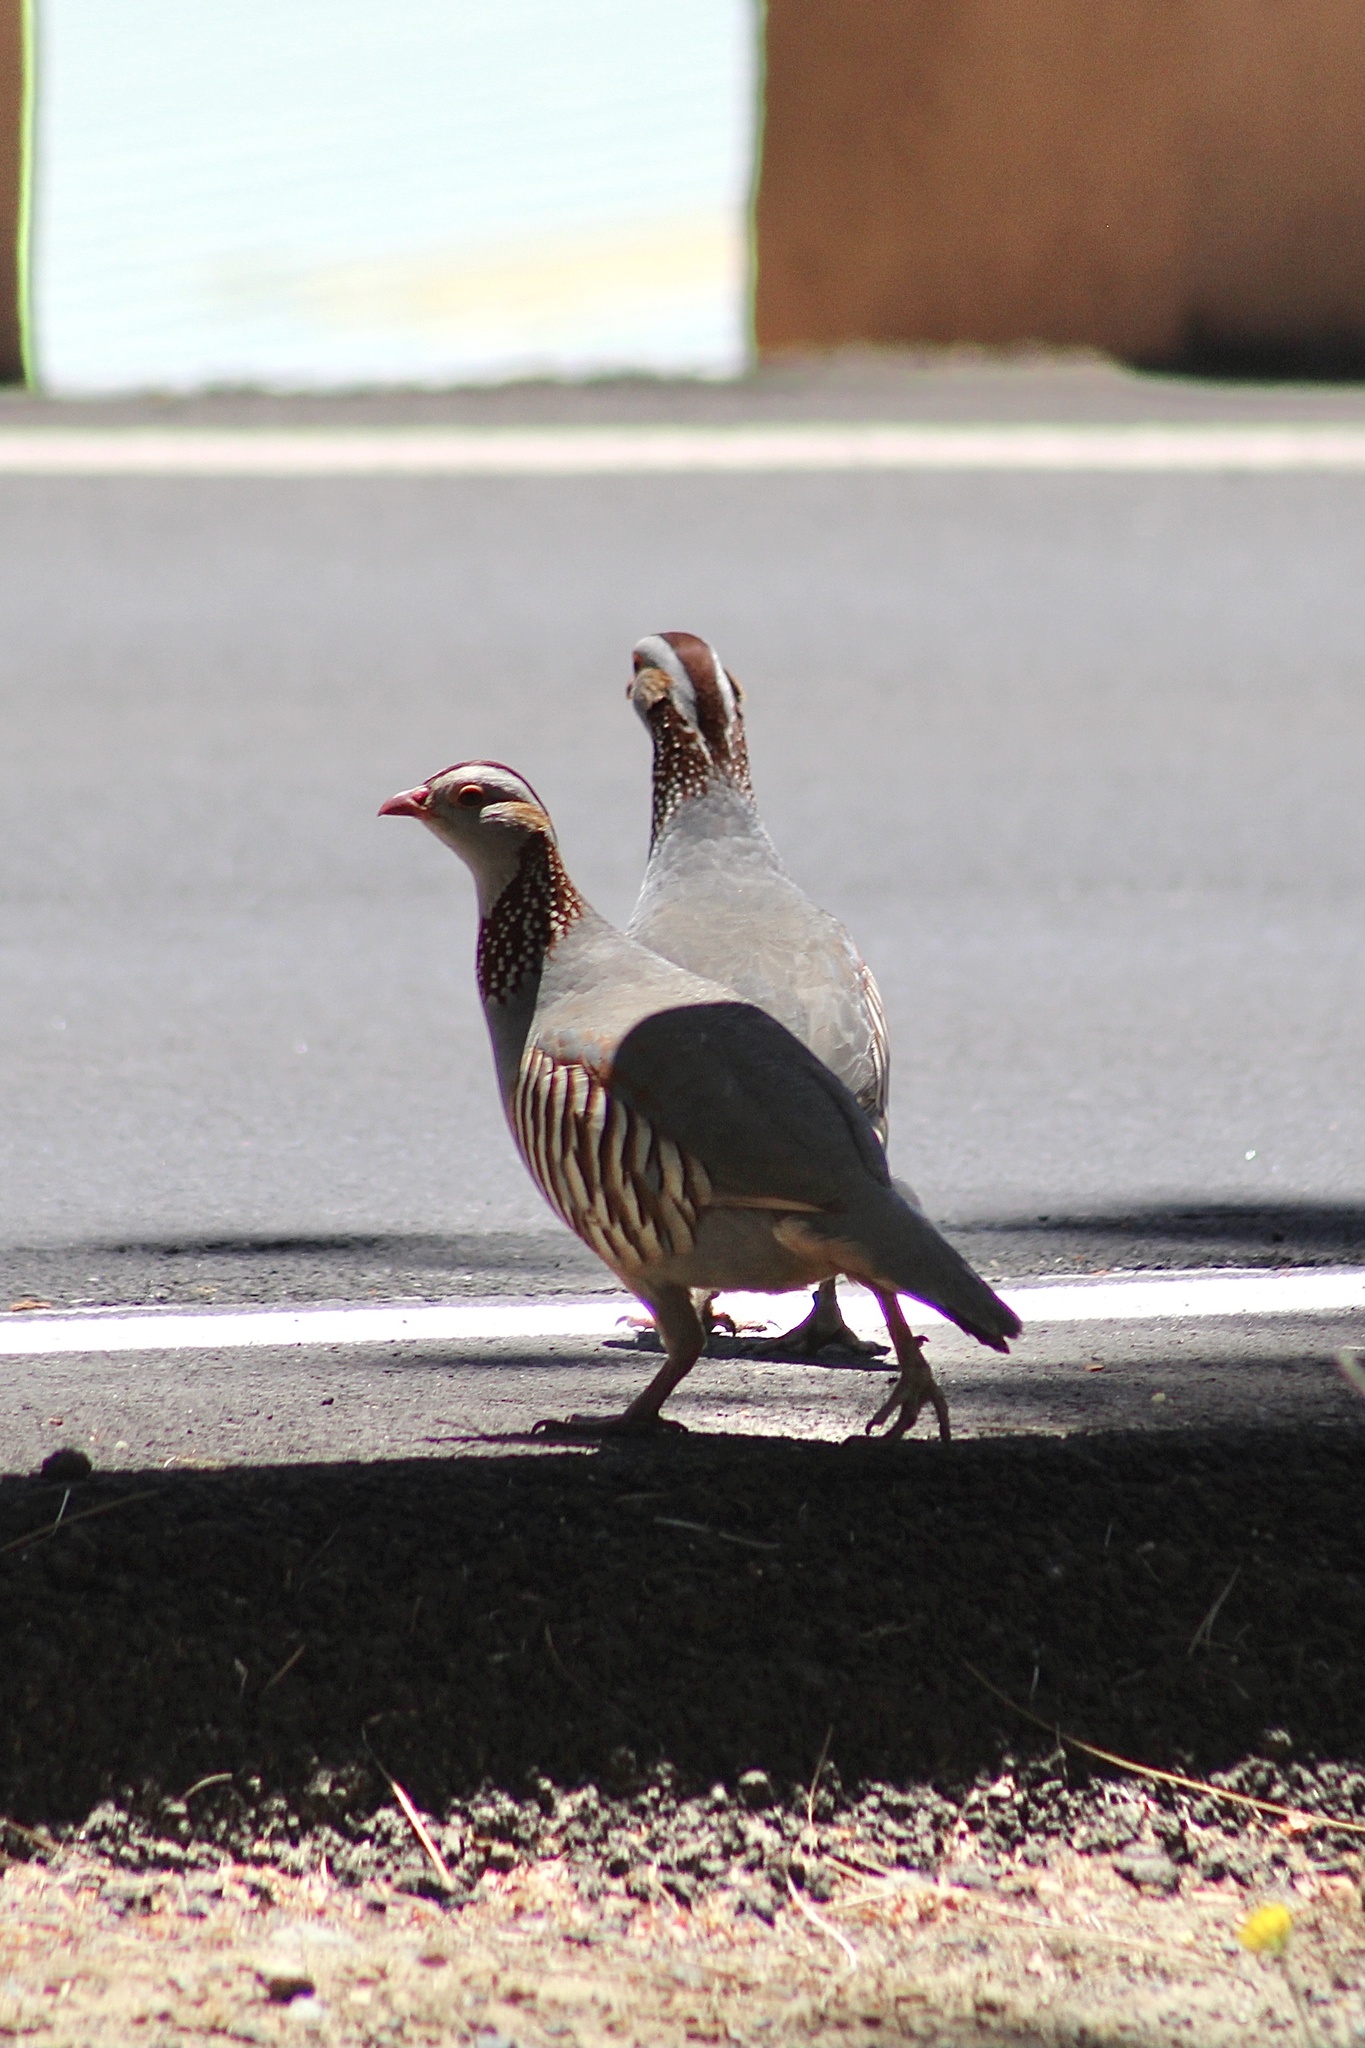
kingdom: Animalia
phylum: Chordata
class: Aves
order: Galliformes
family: Phasianidae
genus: Alectoris
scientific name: Alectoris barbara
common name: Barbary partridge
